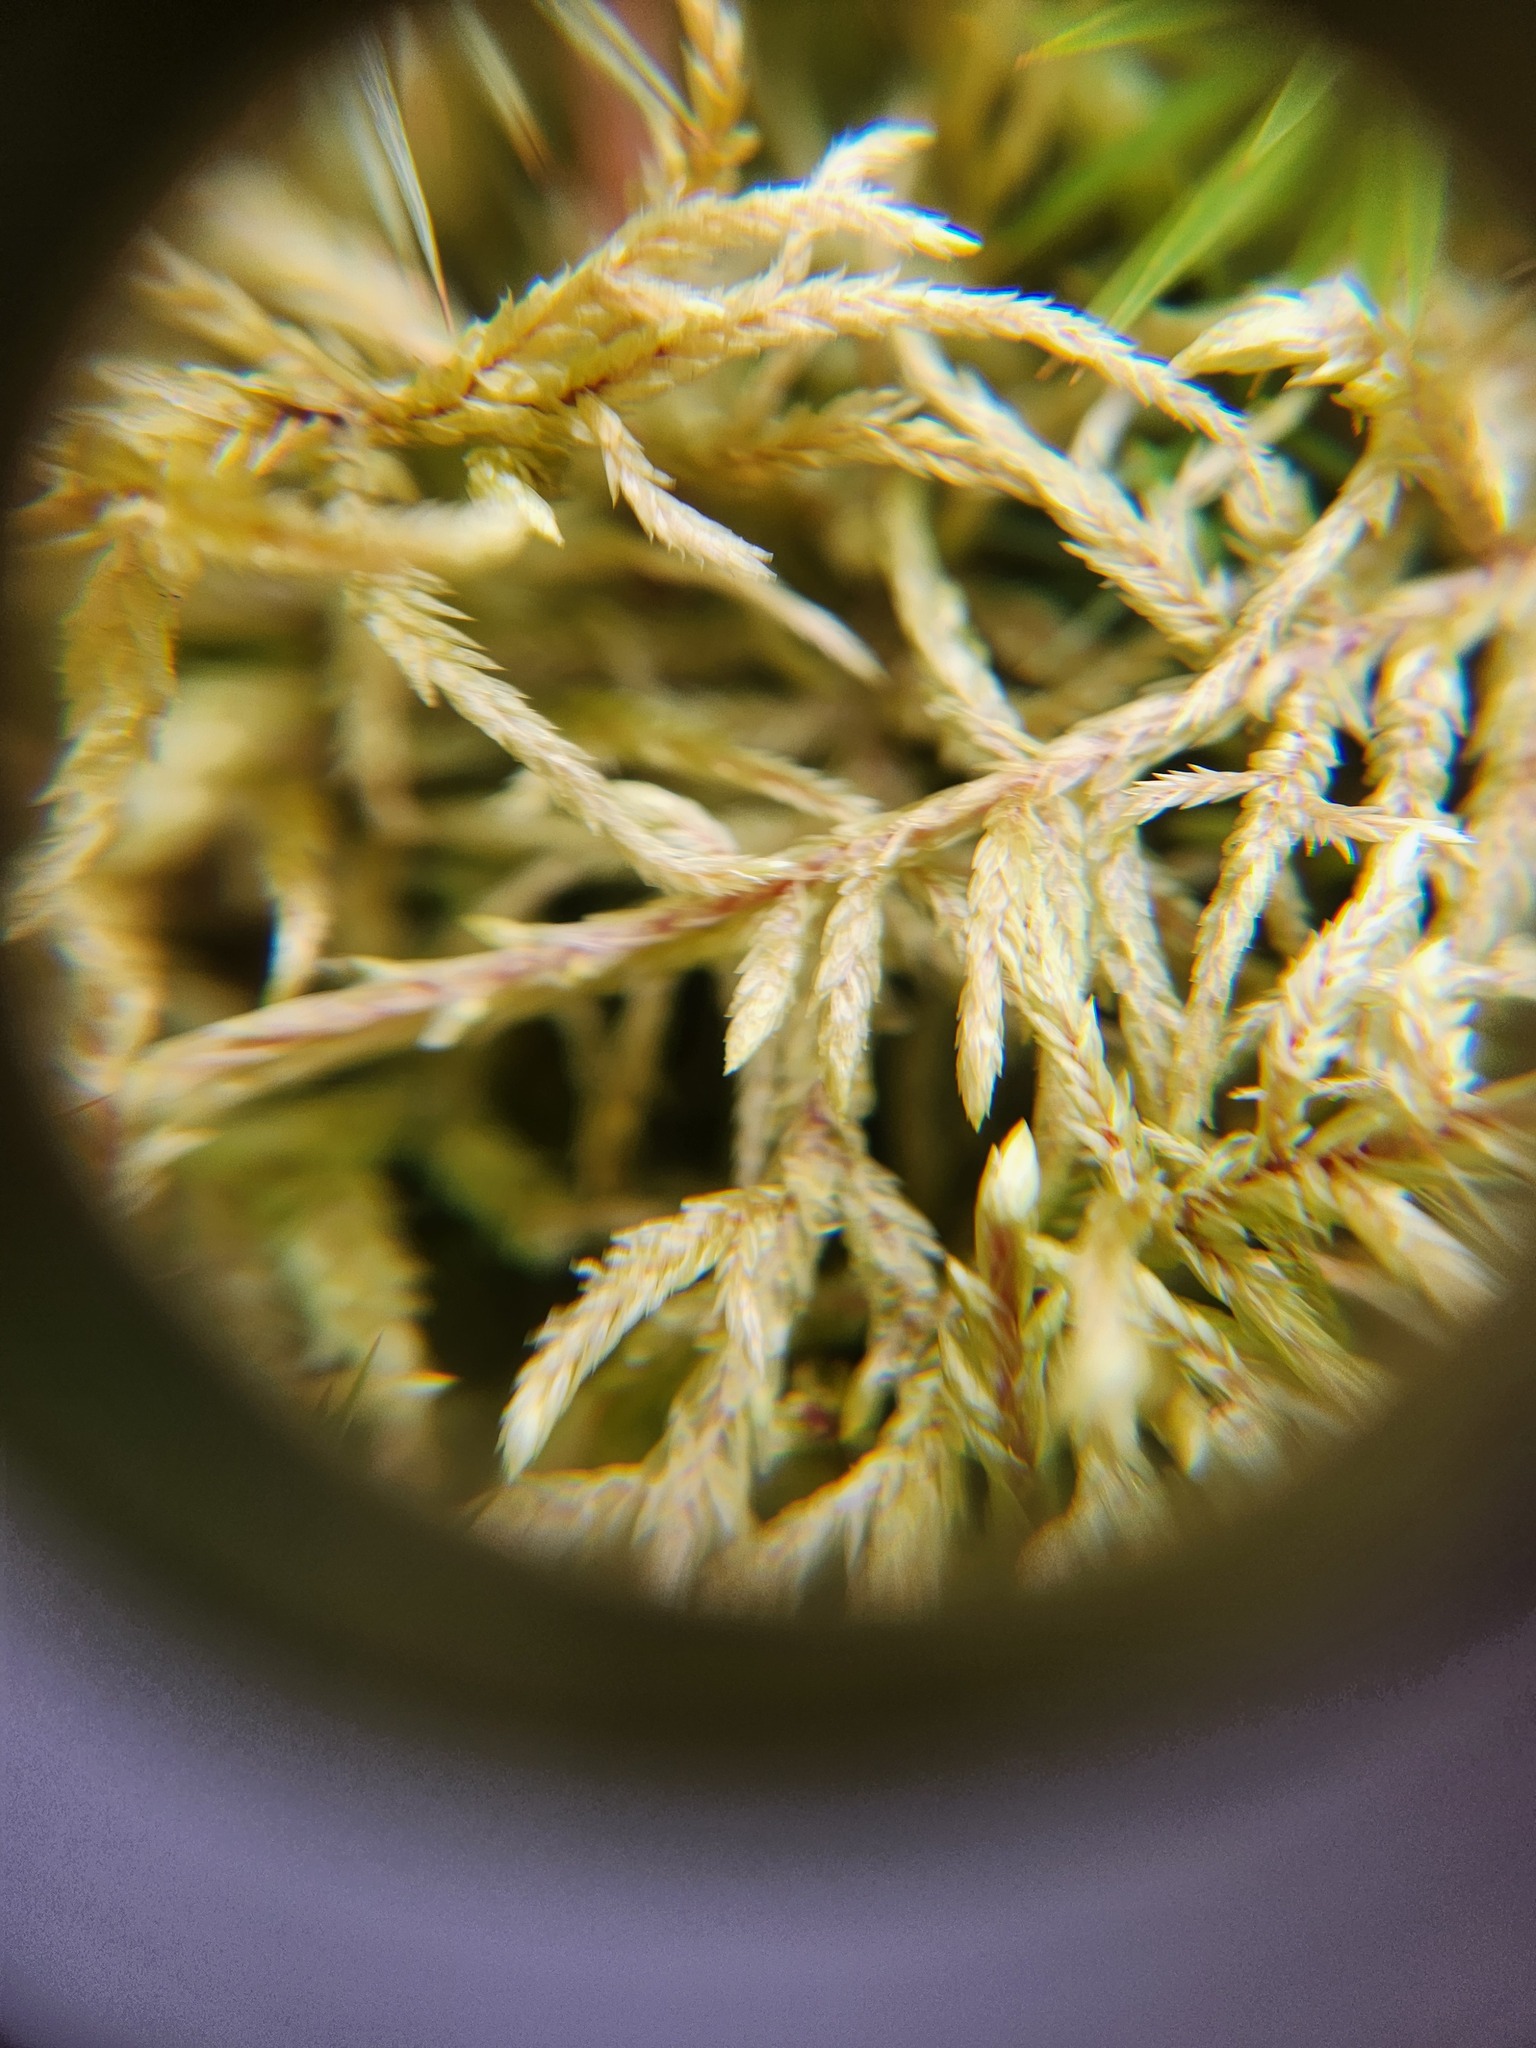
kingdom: Plantae
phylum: Bryophyta
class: Bryopsida
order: Hypnales
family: Hylocomiaceae
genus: Pleurozium
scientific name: Pleurozium schreberi
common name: Red-stemmed feather moss
